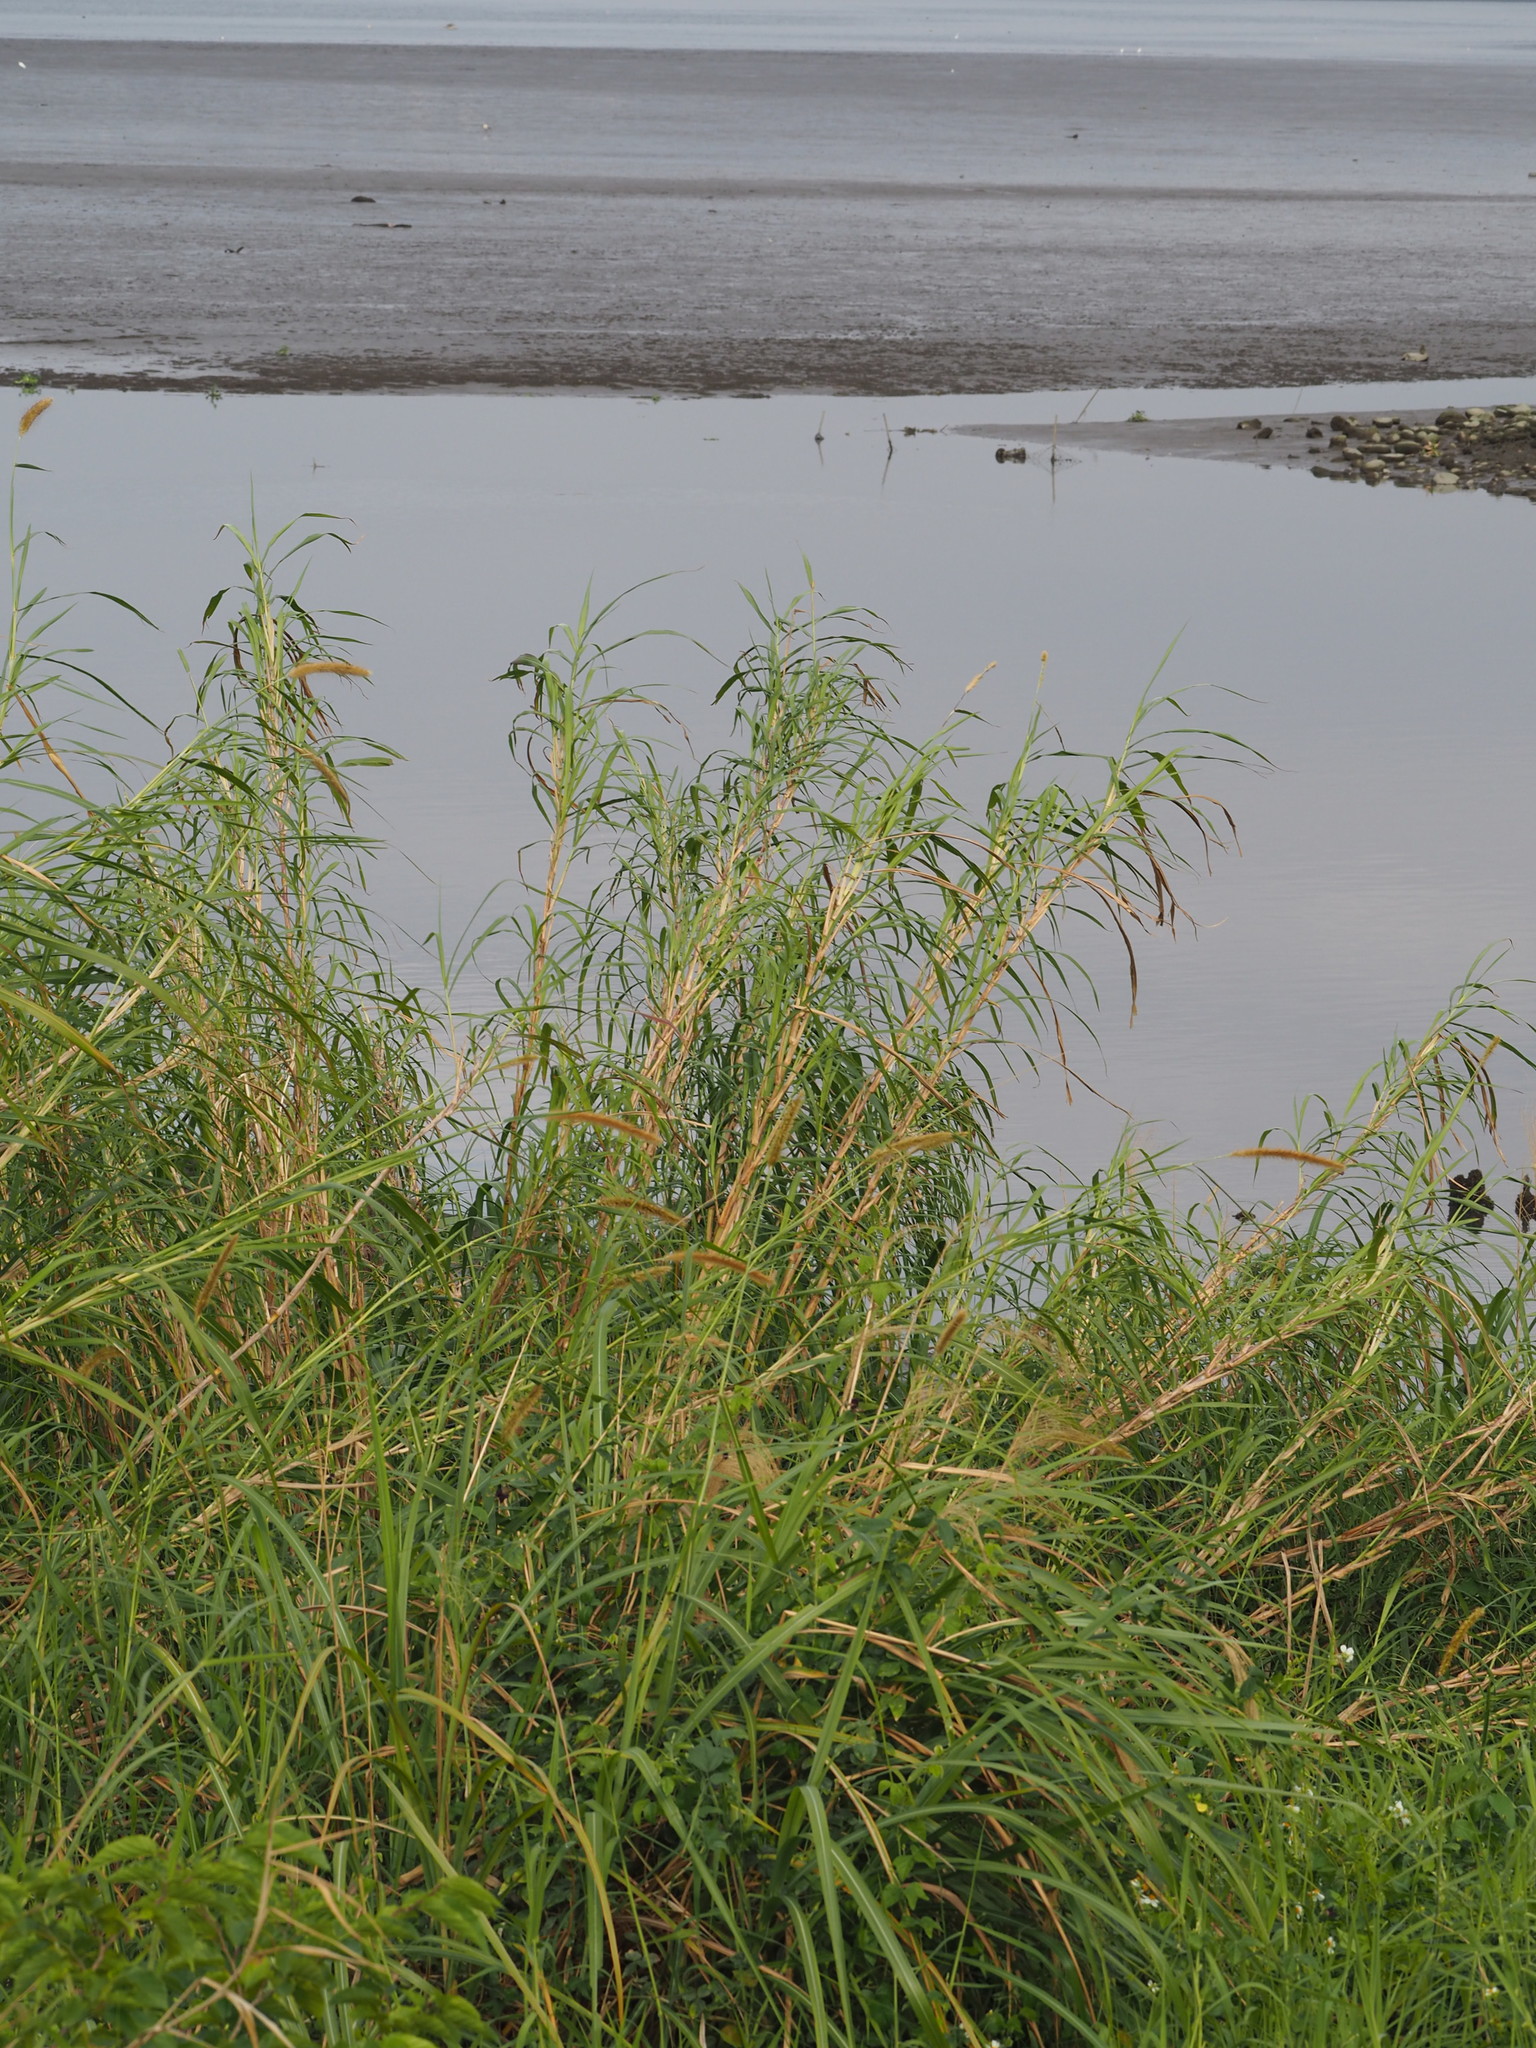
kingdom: Plantae
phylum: Tracheophyta
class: Liliopsida
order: Poales
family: Poaceae
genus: Cenchrus
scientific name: Cenchrus purpureus
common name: Elephant grass
